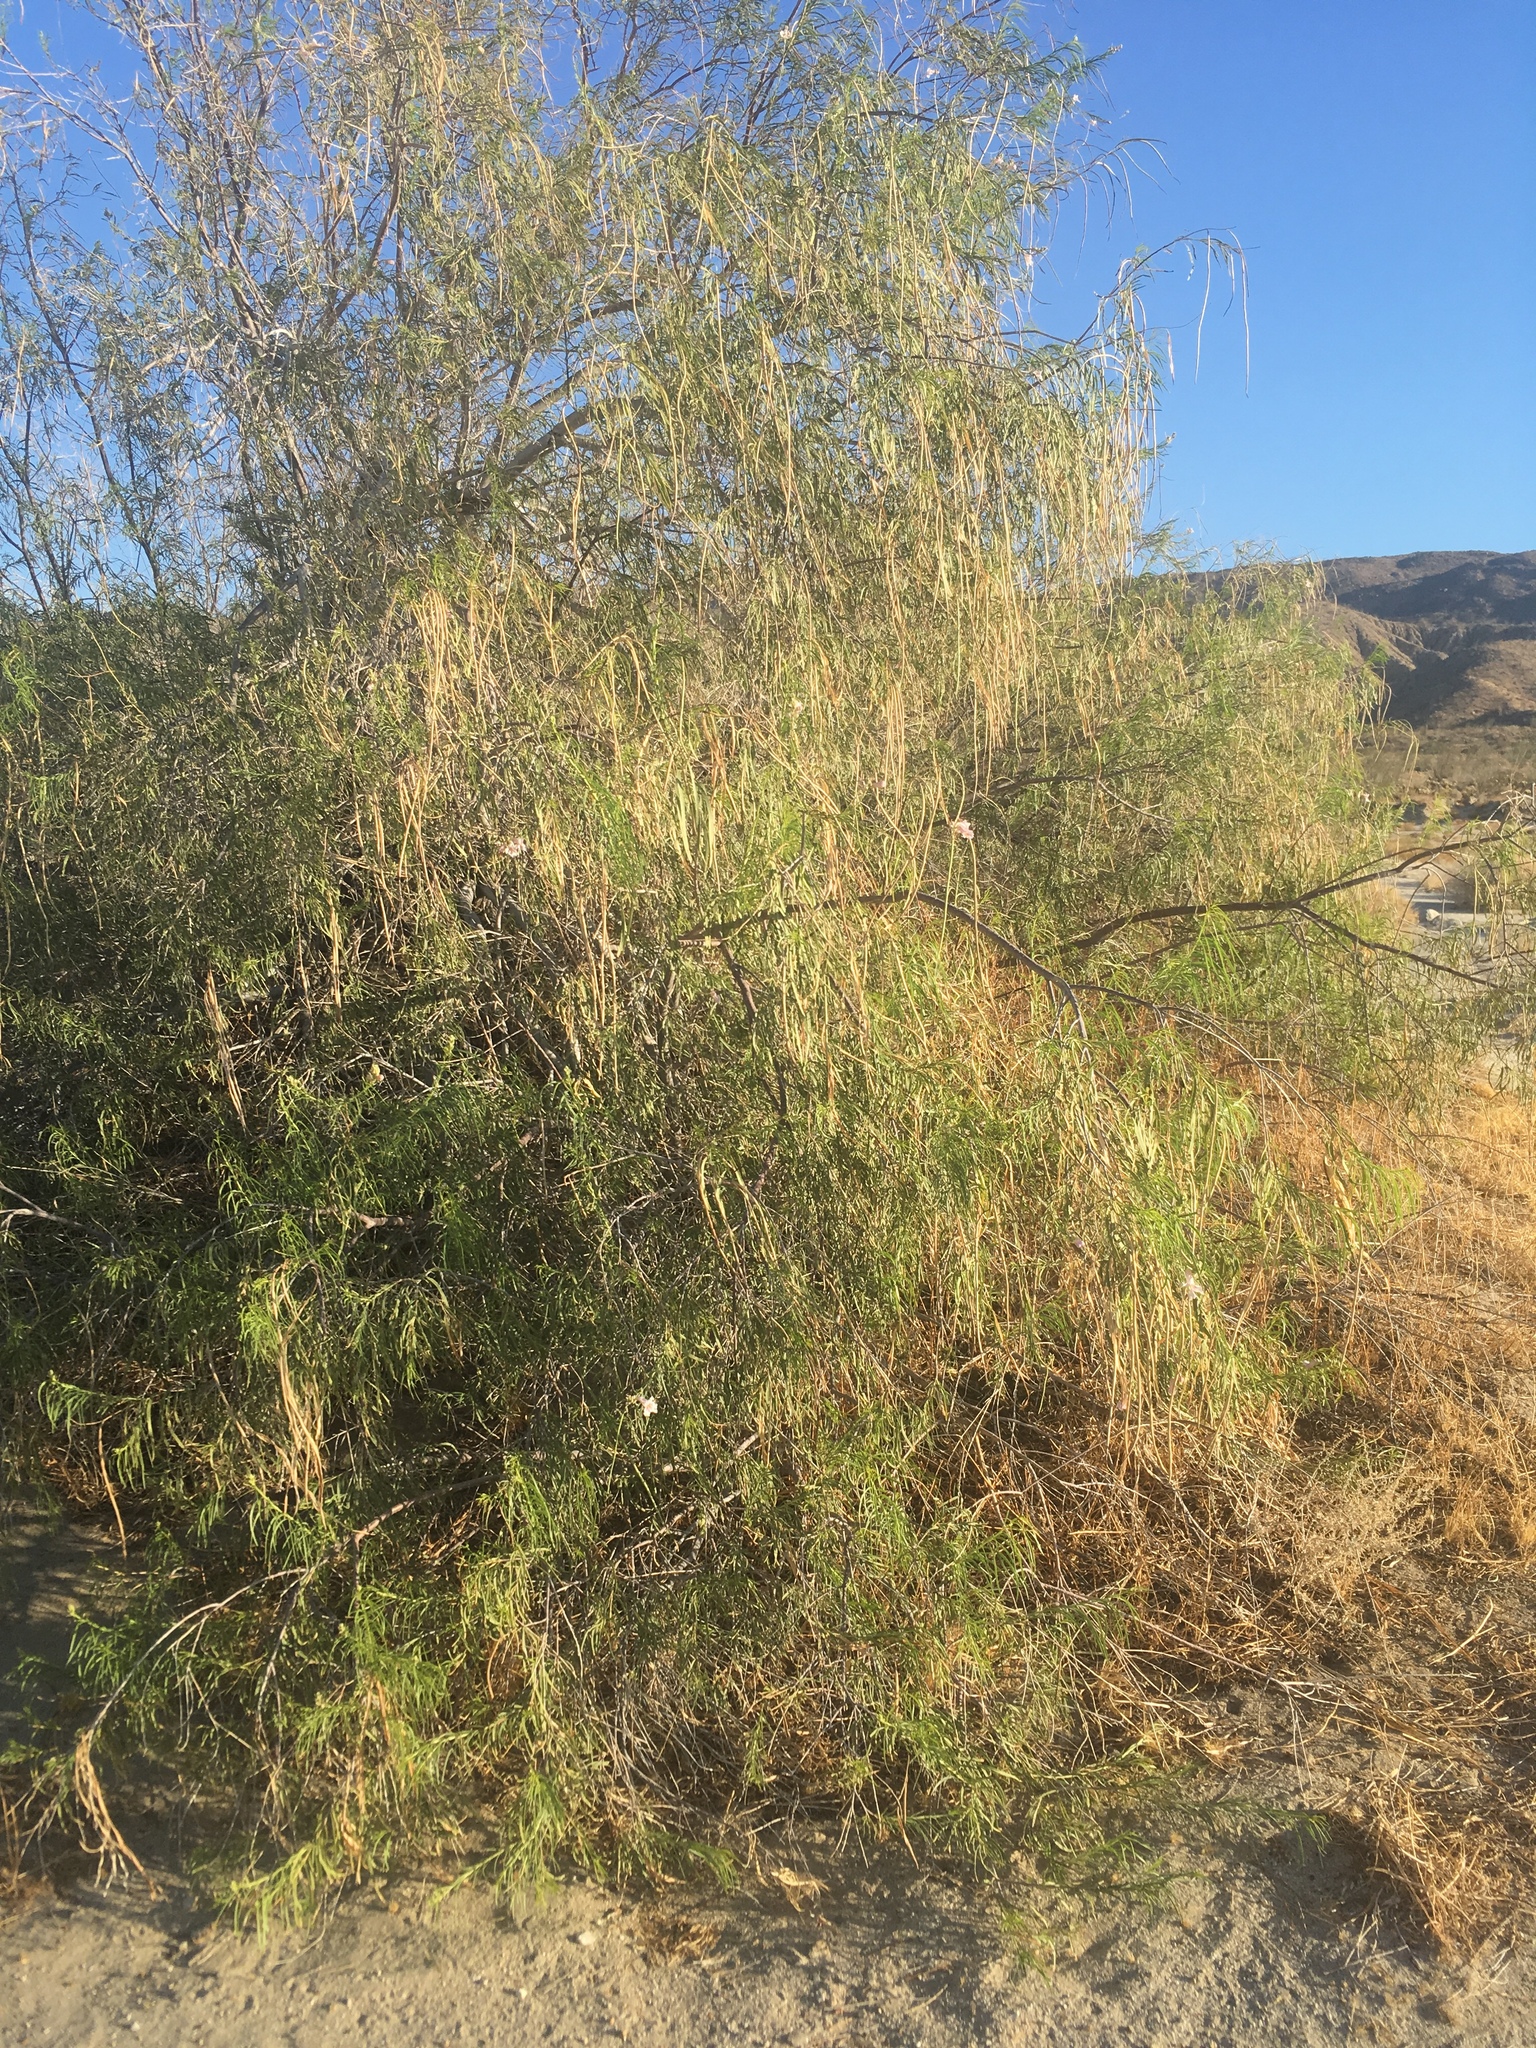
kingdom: Plantae
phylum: Tracheophyta
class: Magnoliopsida
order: Lamiales
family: Bignoniaceae
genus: Chilopsis
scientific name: Chilopsis linearis
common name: Desert-willow
